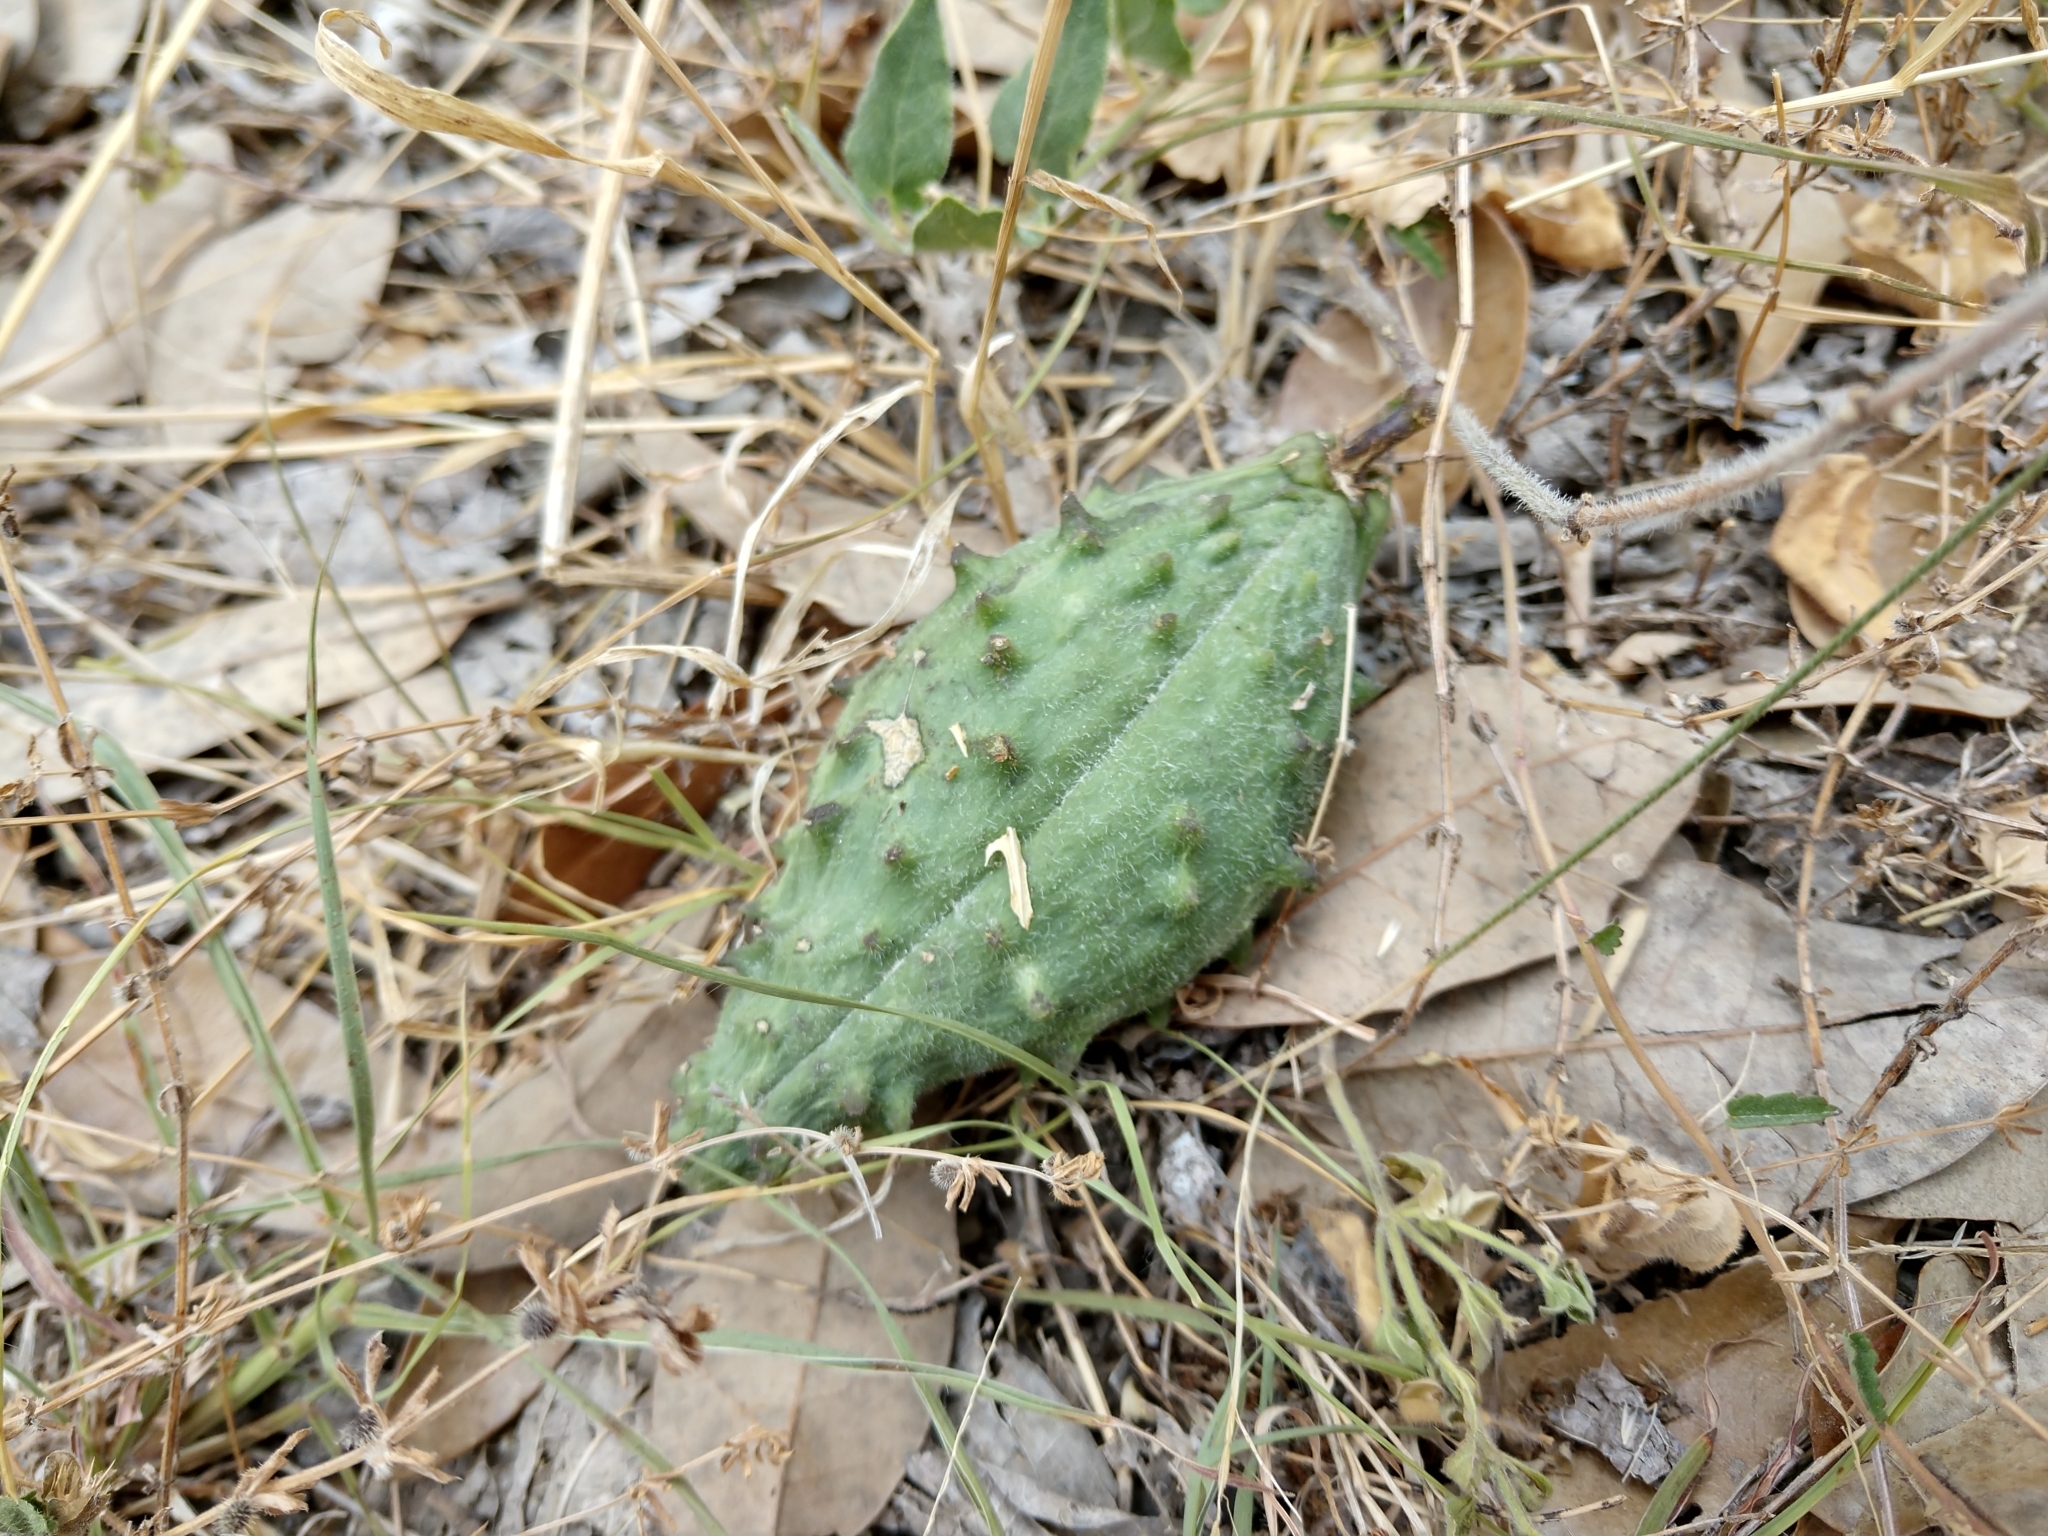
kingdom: Plantae
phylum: Tracheophyta
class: Magnoliopsida
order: Gentianales
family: Apocynaceae
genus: Chthamalia
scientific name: Chthamalia biflora
